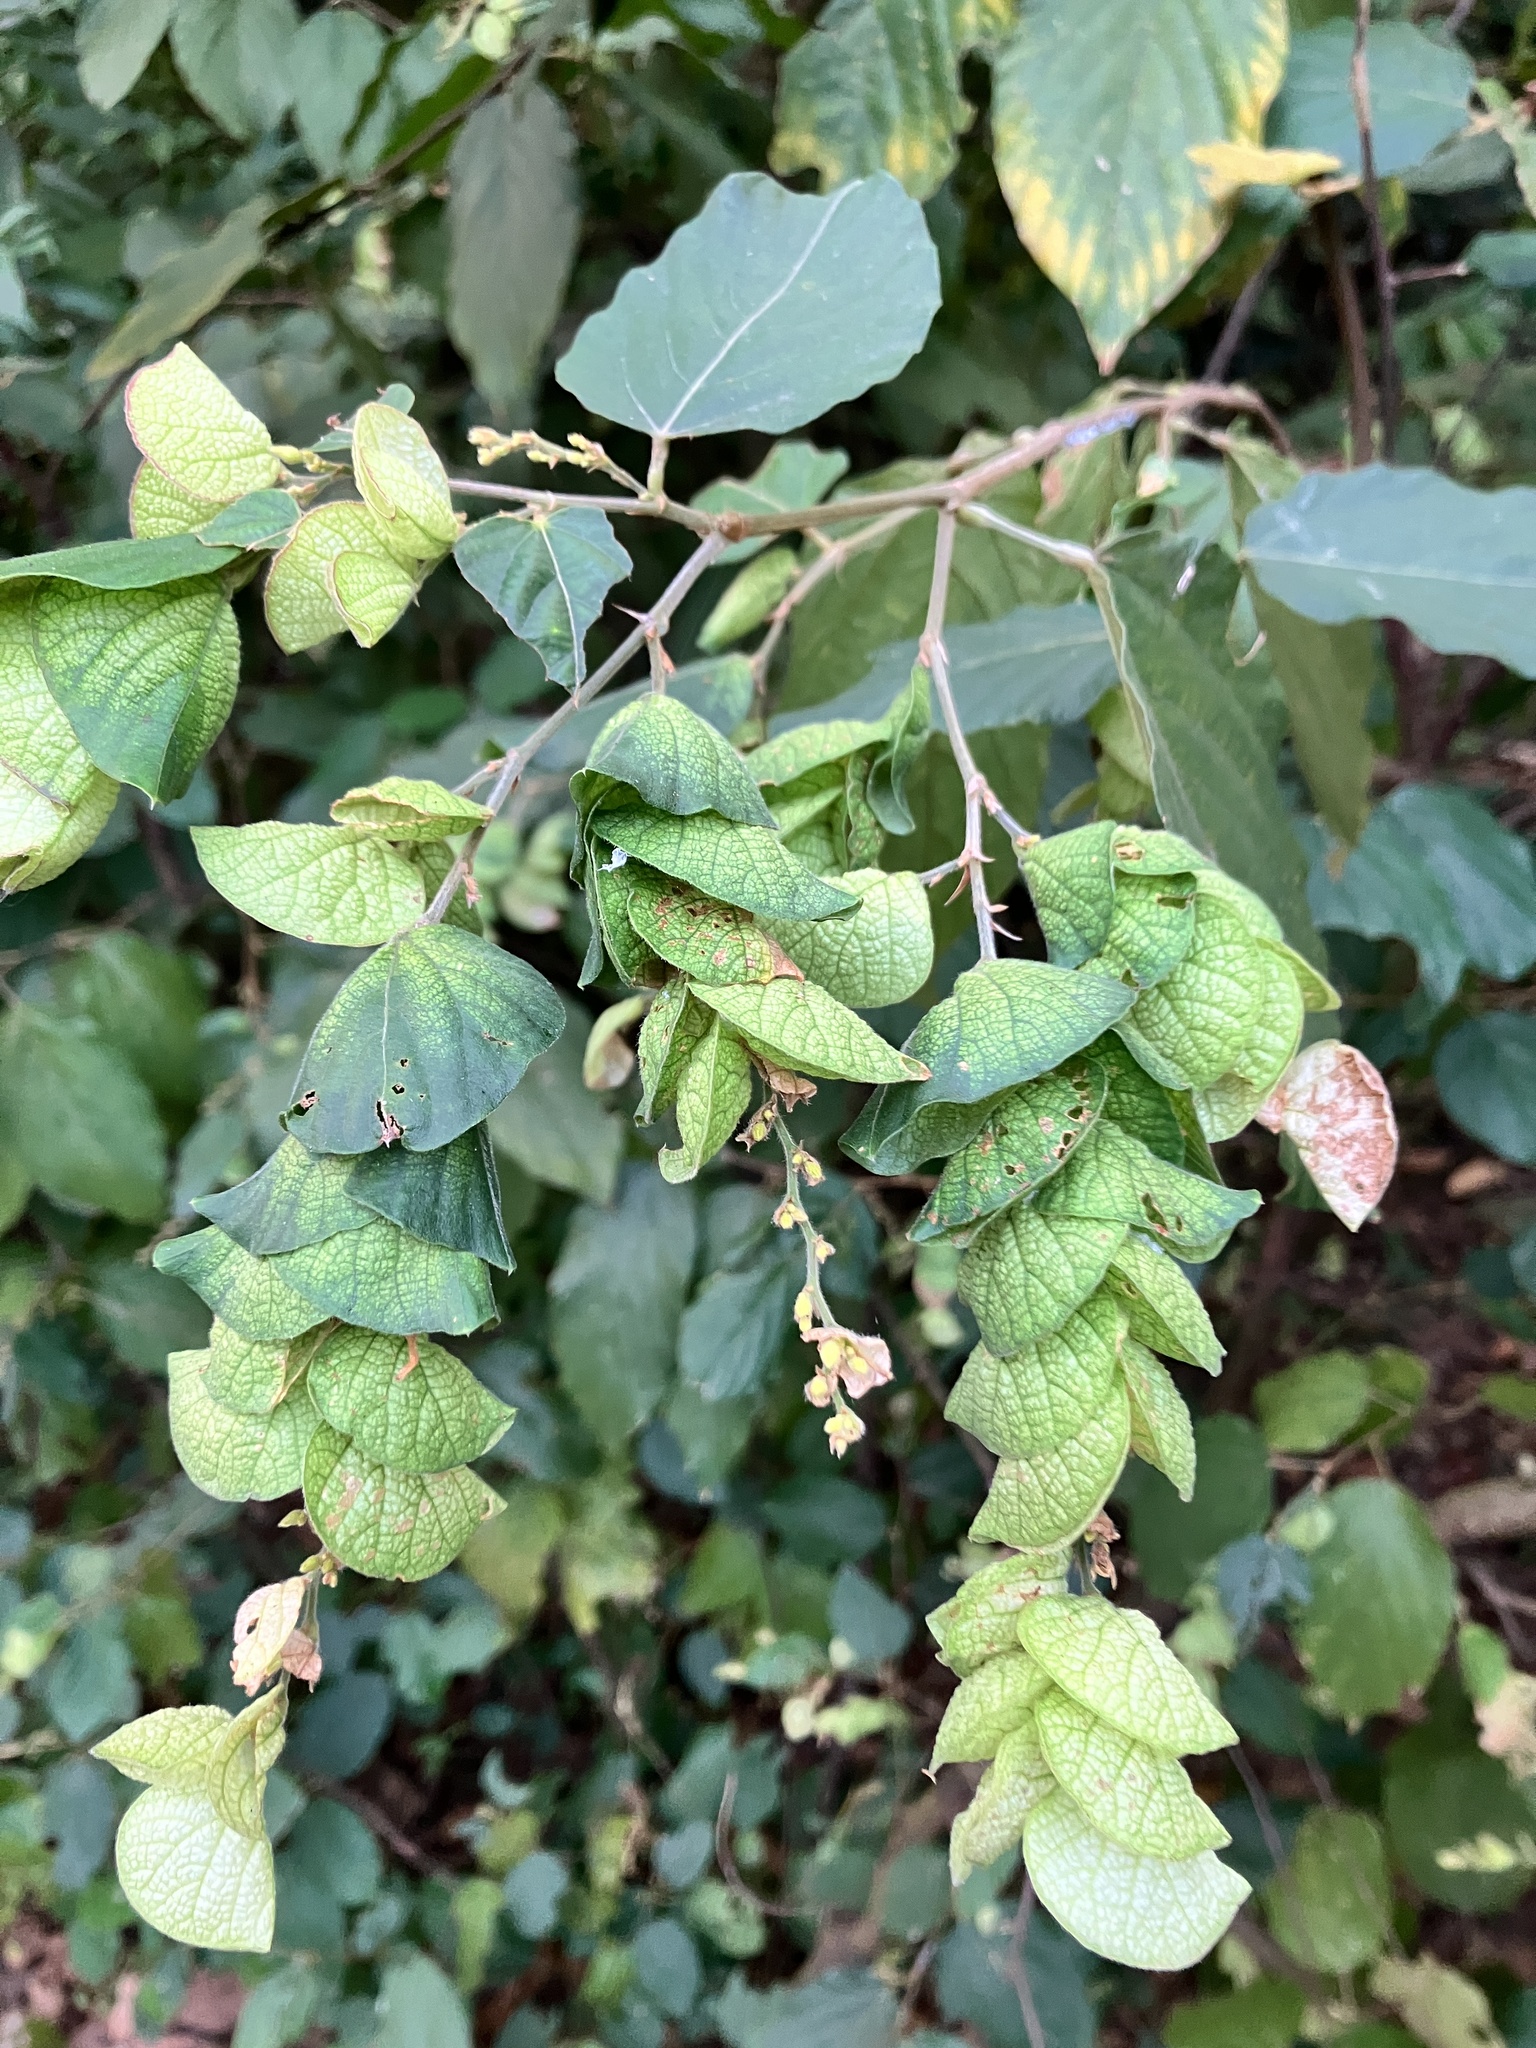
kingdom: Plantae
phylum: Tracheophyta
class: Magnoliopsida
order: Fabales
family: Fabaceae
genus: Flemingia
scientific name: Flemingia strobilifera
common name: Wild hops
